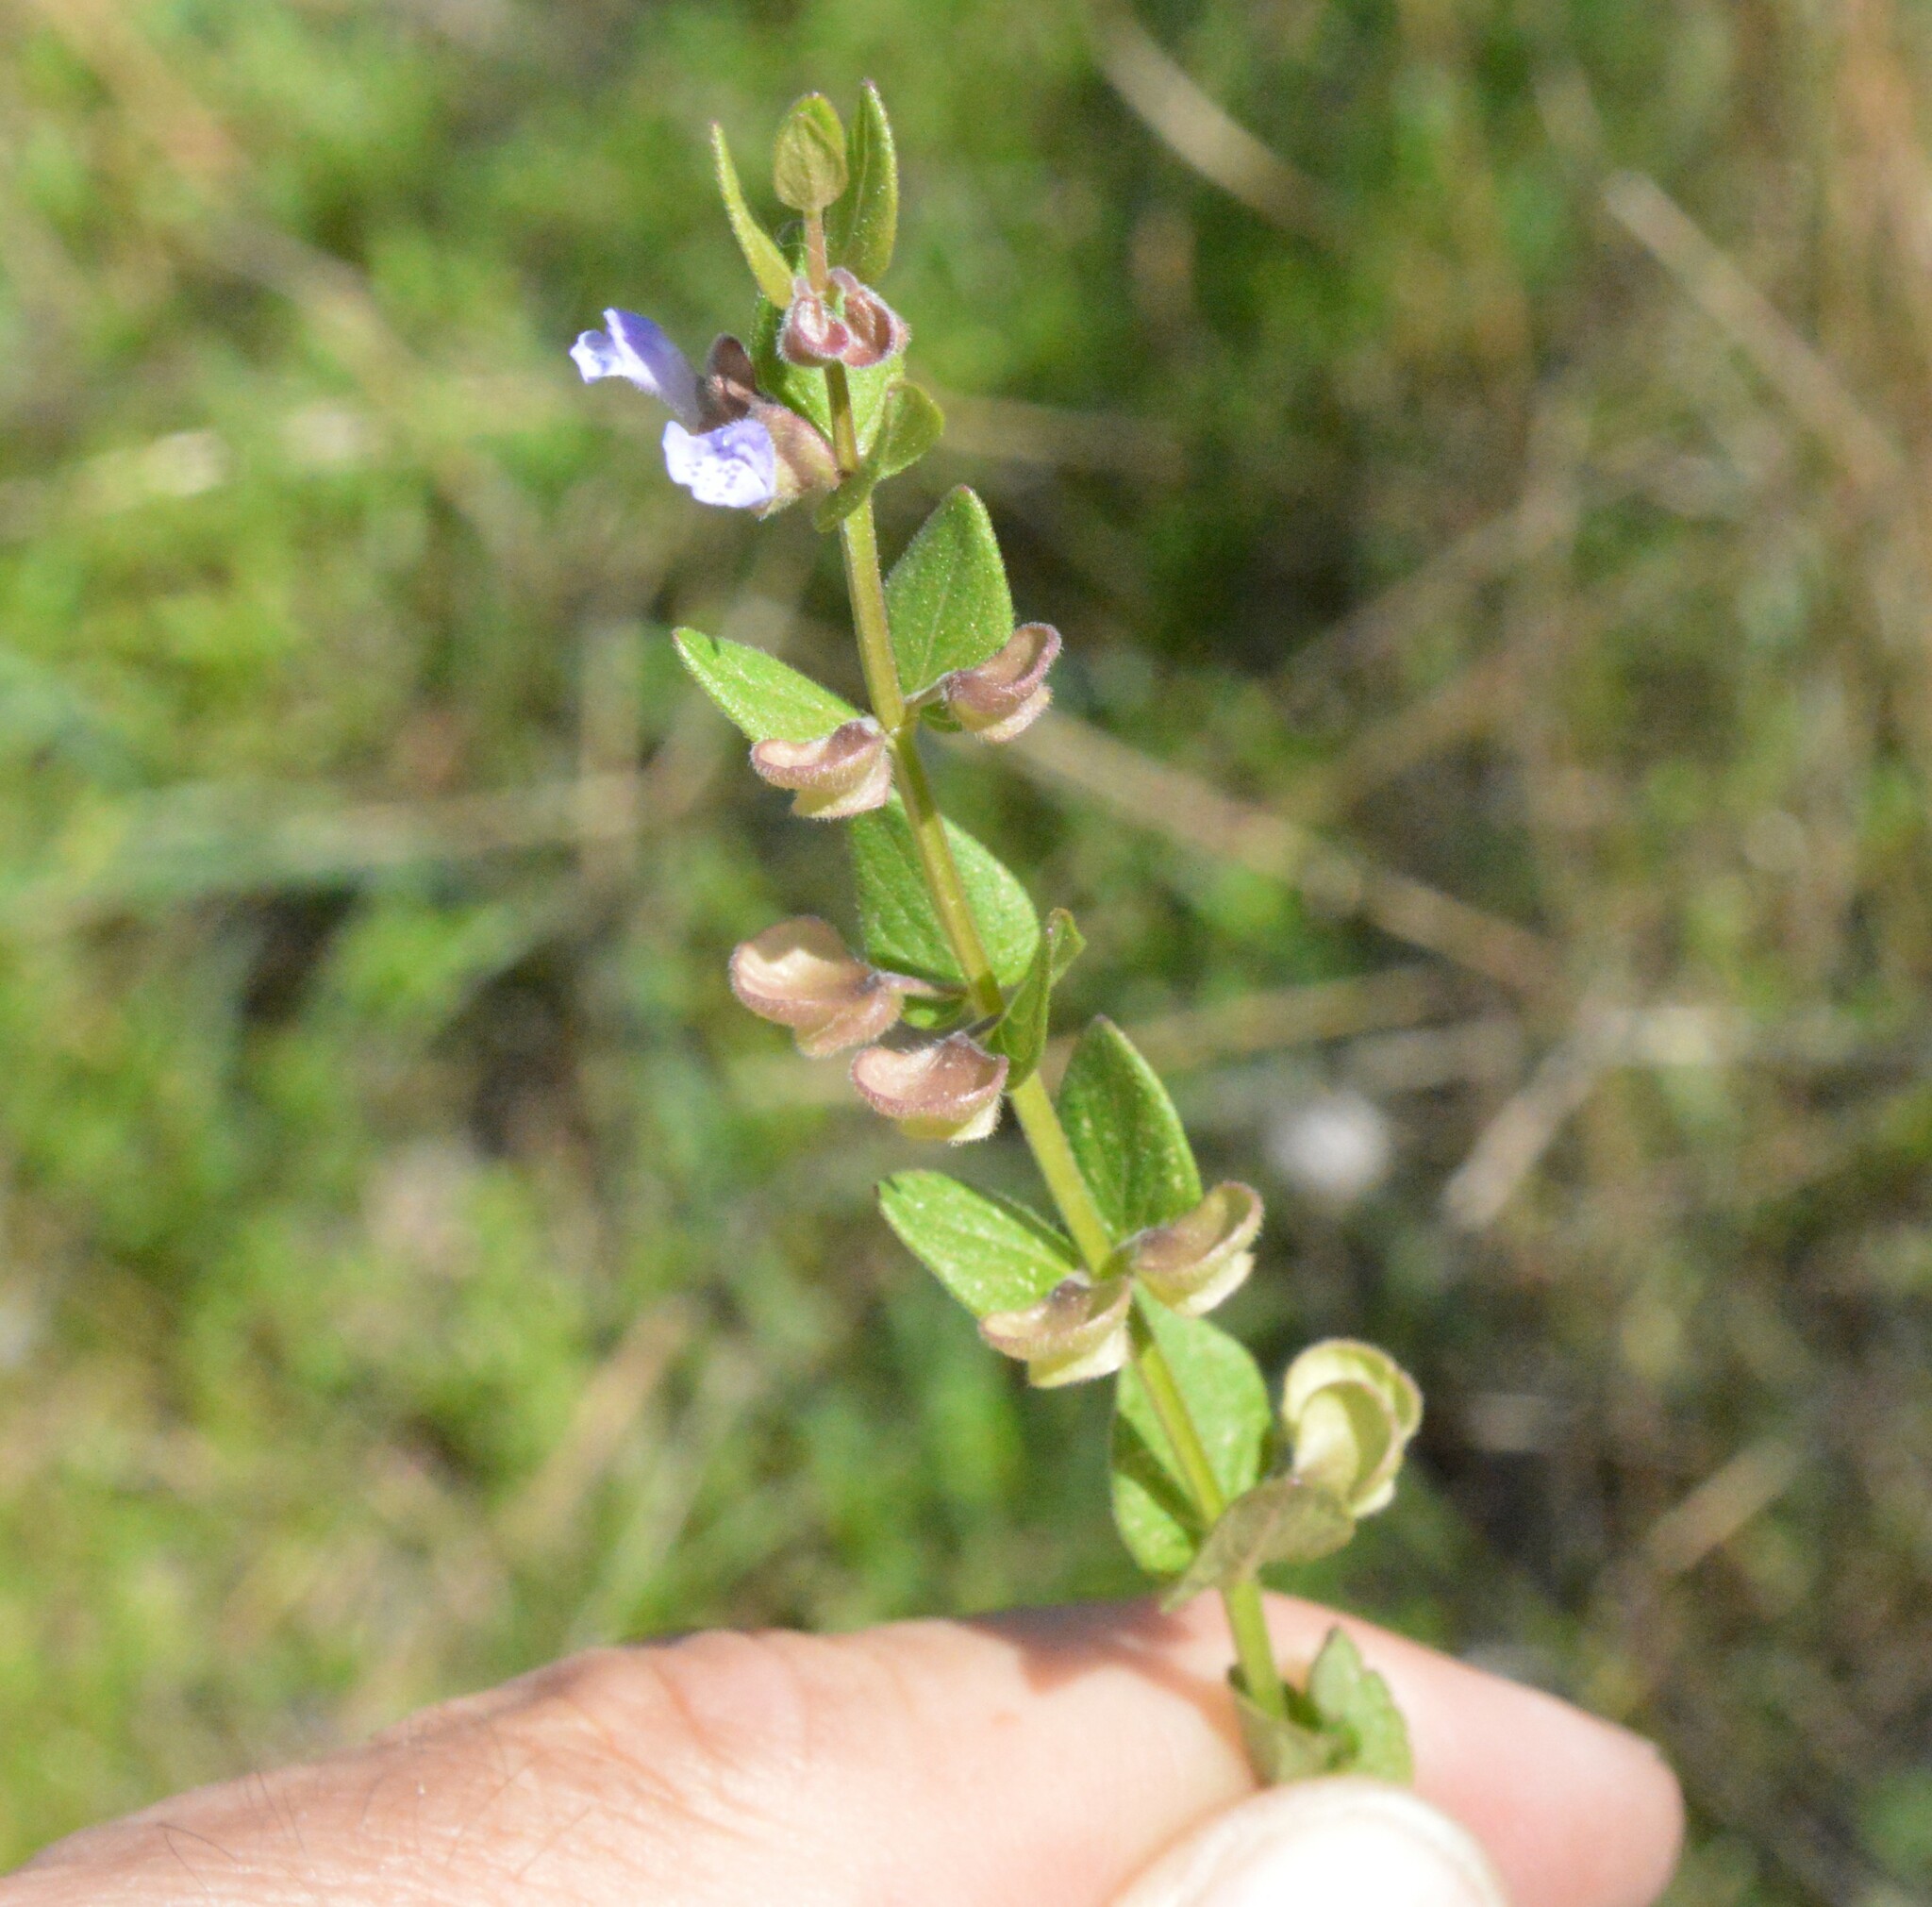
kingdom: Plantae
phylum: Tracheophyta
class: Magnoliopsida
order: Lamiales
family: Lamiaceae
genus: Scutellaria
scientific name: Scutellaria parvula
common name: Little scullcap
